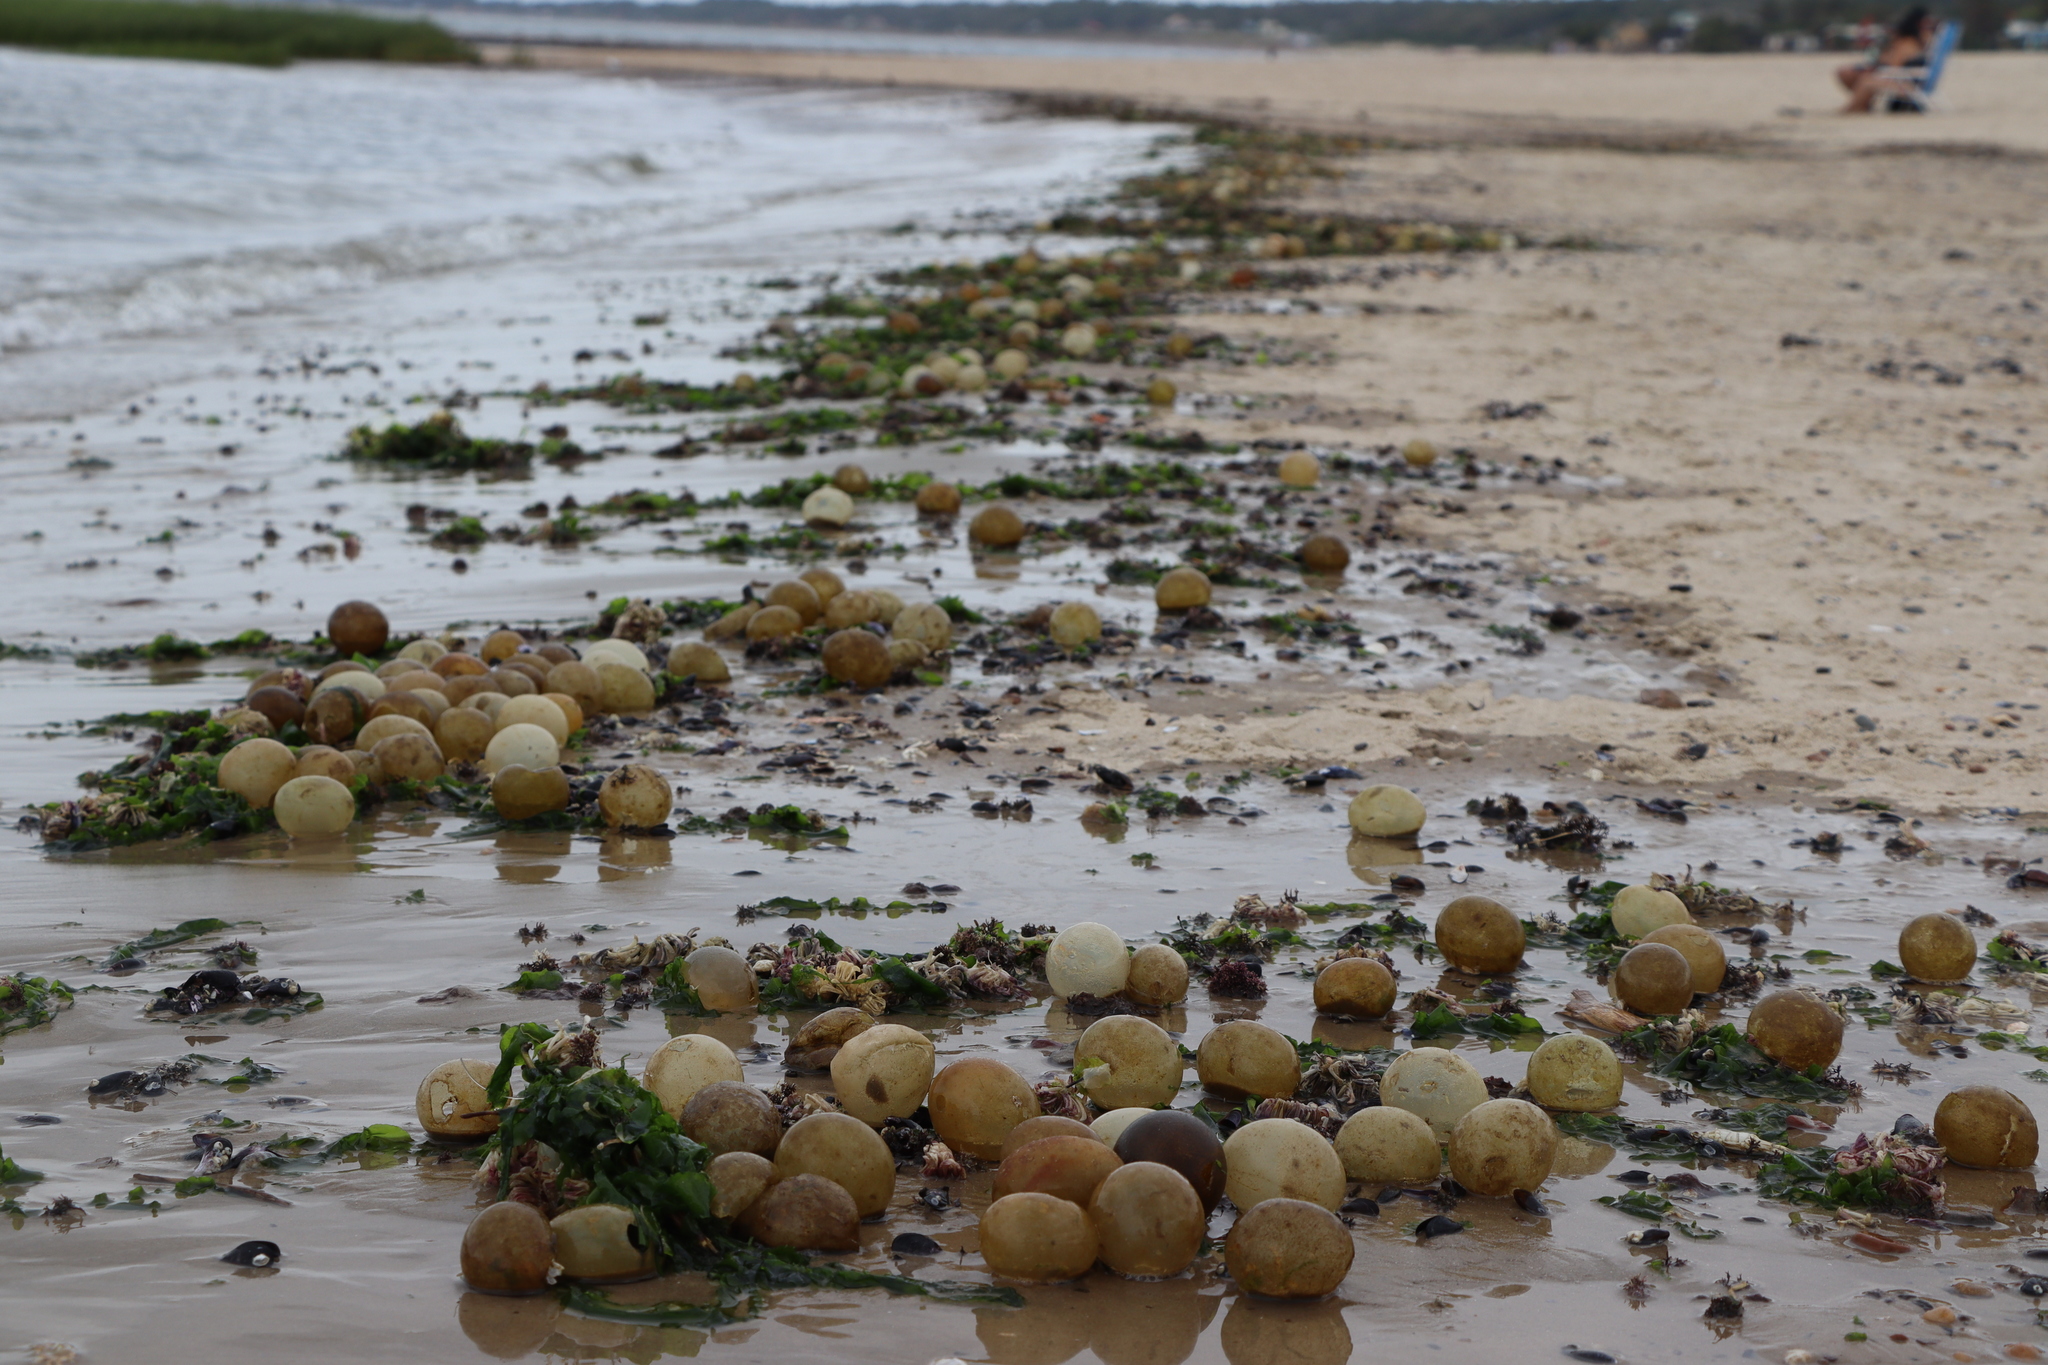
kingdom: Animalia
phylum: Mollusca
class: Gastropoda
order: Neogastropoda
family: Volutidae
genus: Pachycymbiola
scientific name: Pachycymbiola brasiliana
